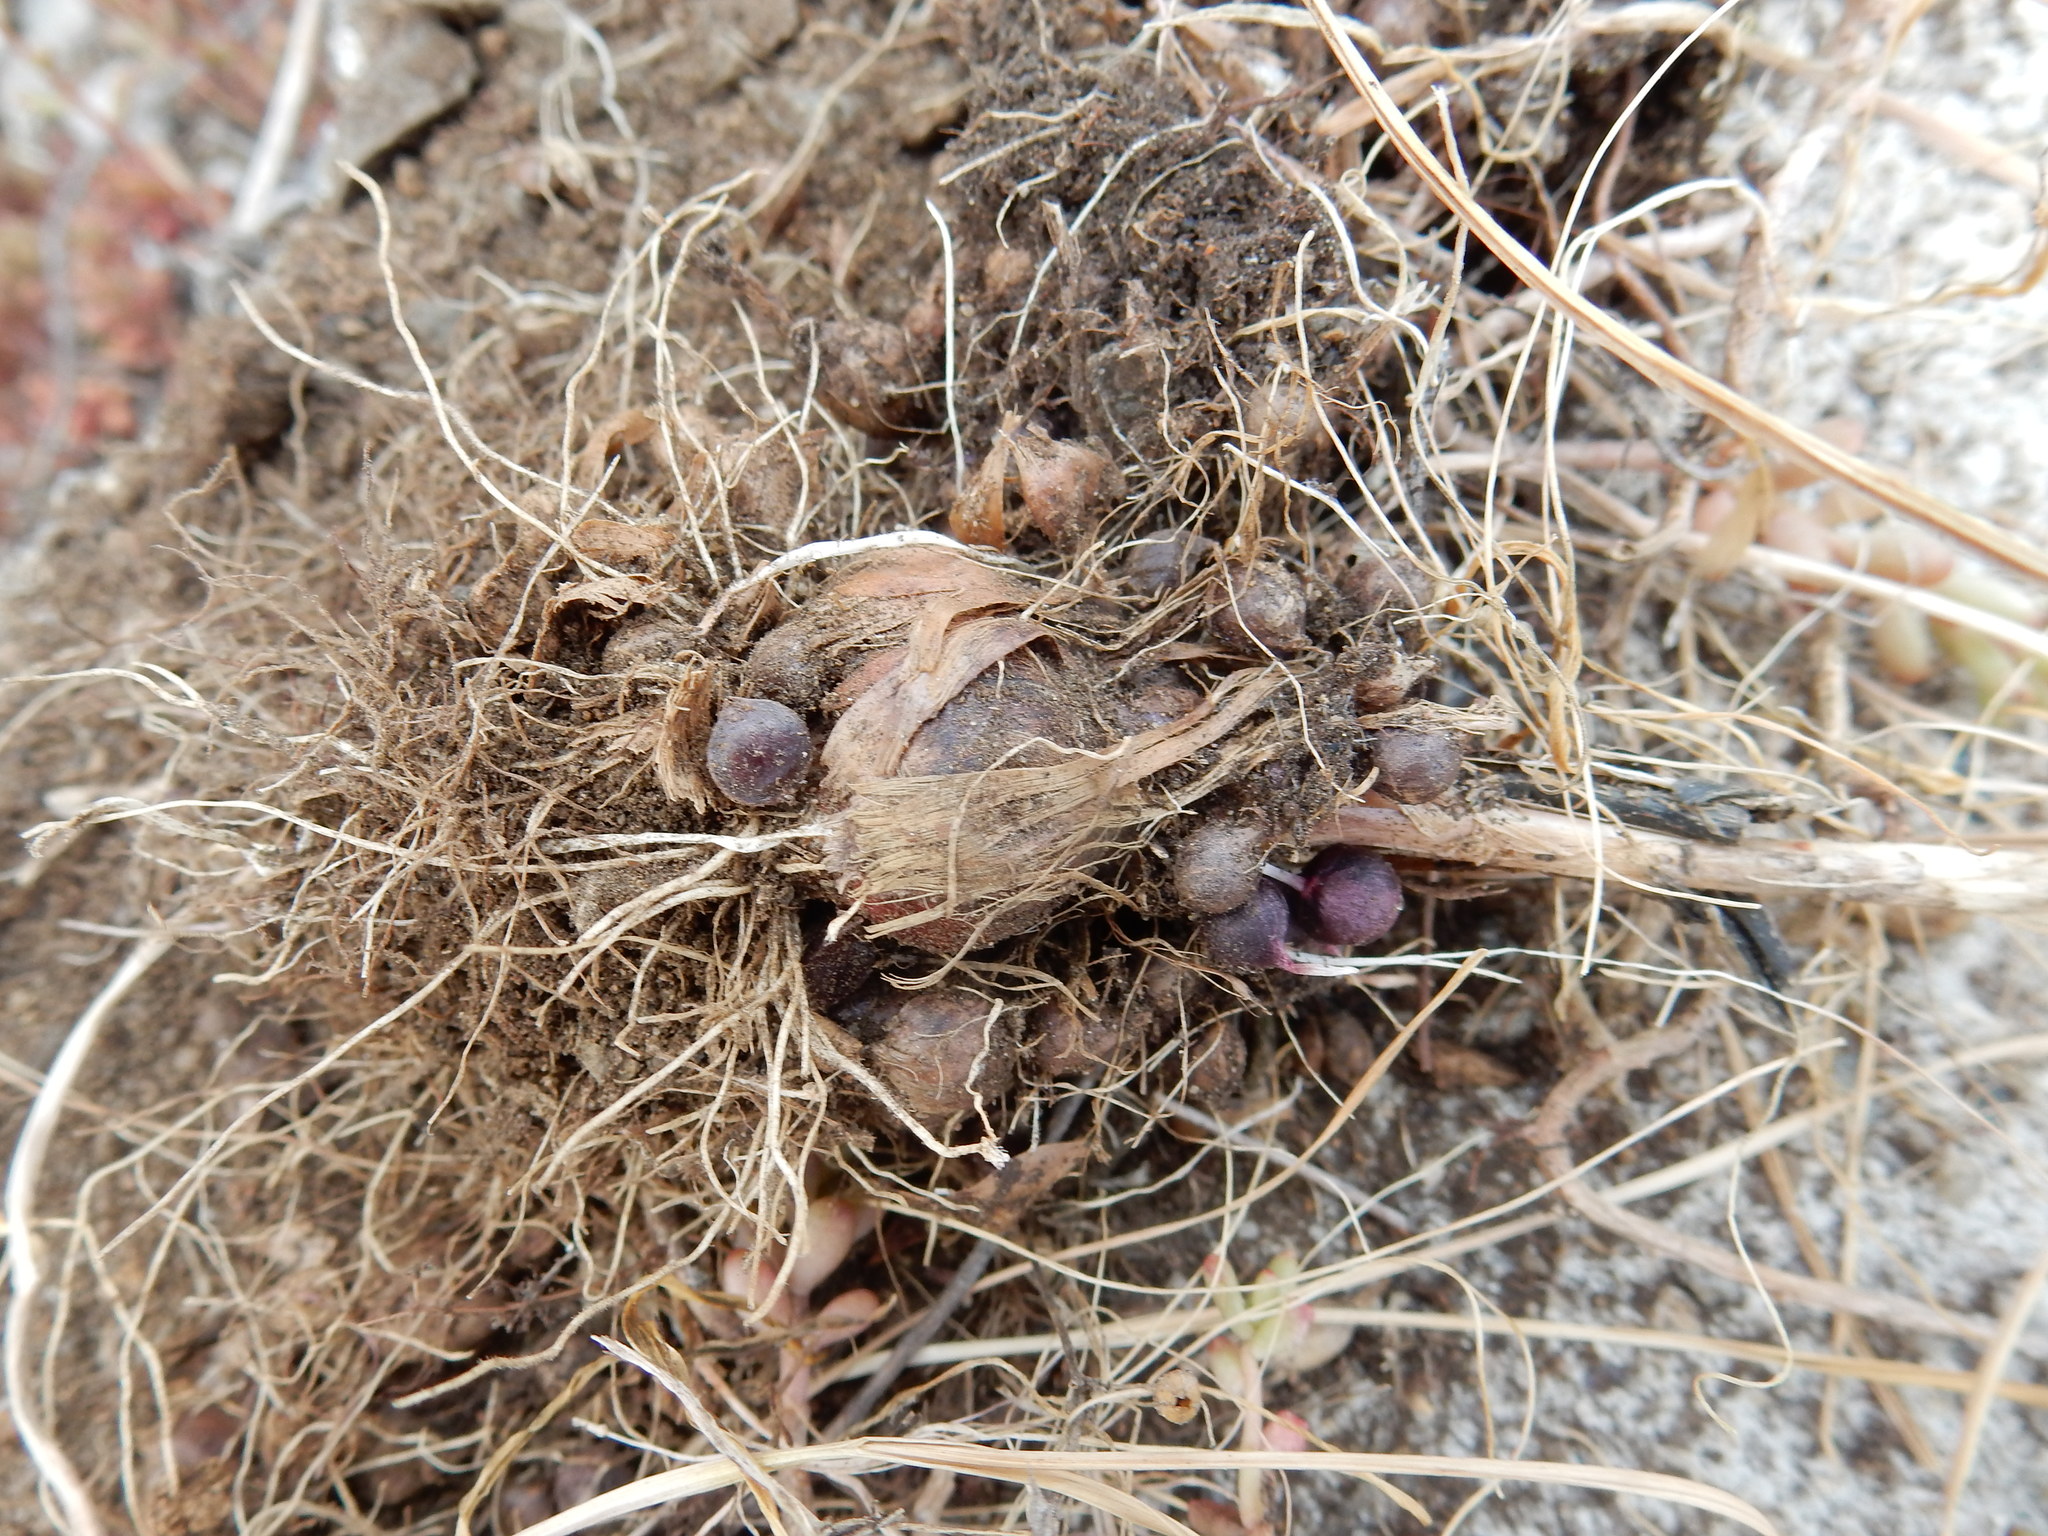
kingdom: Plantae
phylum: Tracheophyta
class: Liliopsida
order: Asparagales
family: Amaryllidaceae
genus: Allium
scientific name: Allium rotundum
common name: Sand leek
